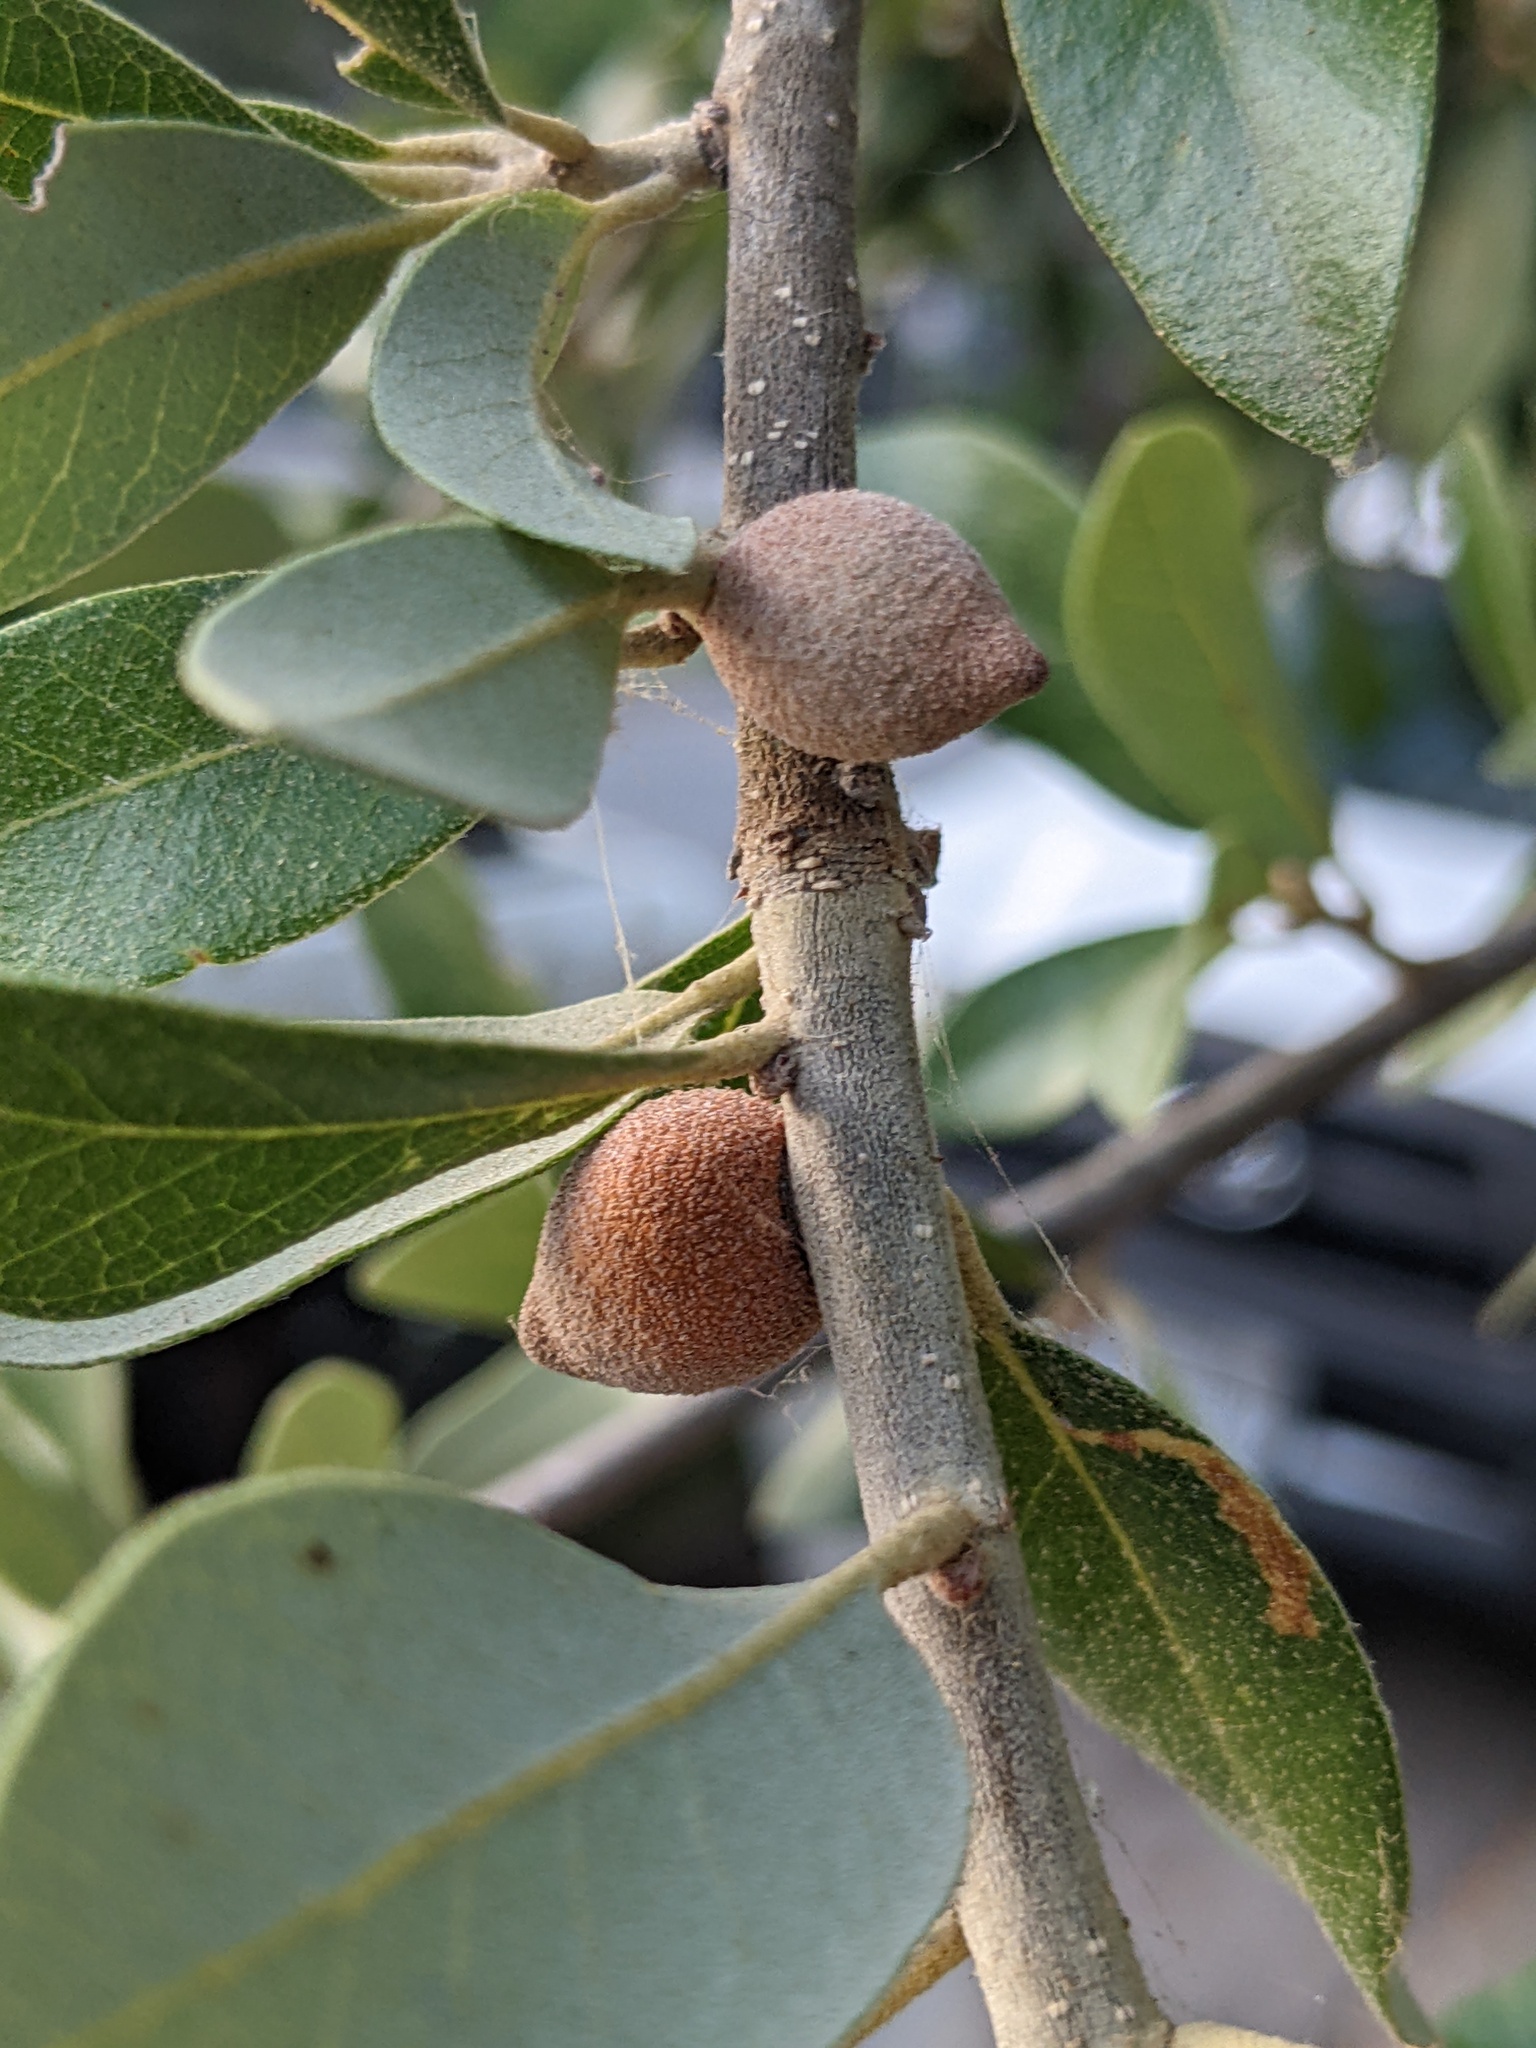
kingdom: Animalia
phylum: Arthropoda
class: Insecta
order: Hymenoptera
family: Cynipidae
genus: Disholcaspis
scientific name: Disholcaspis
